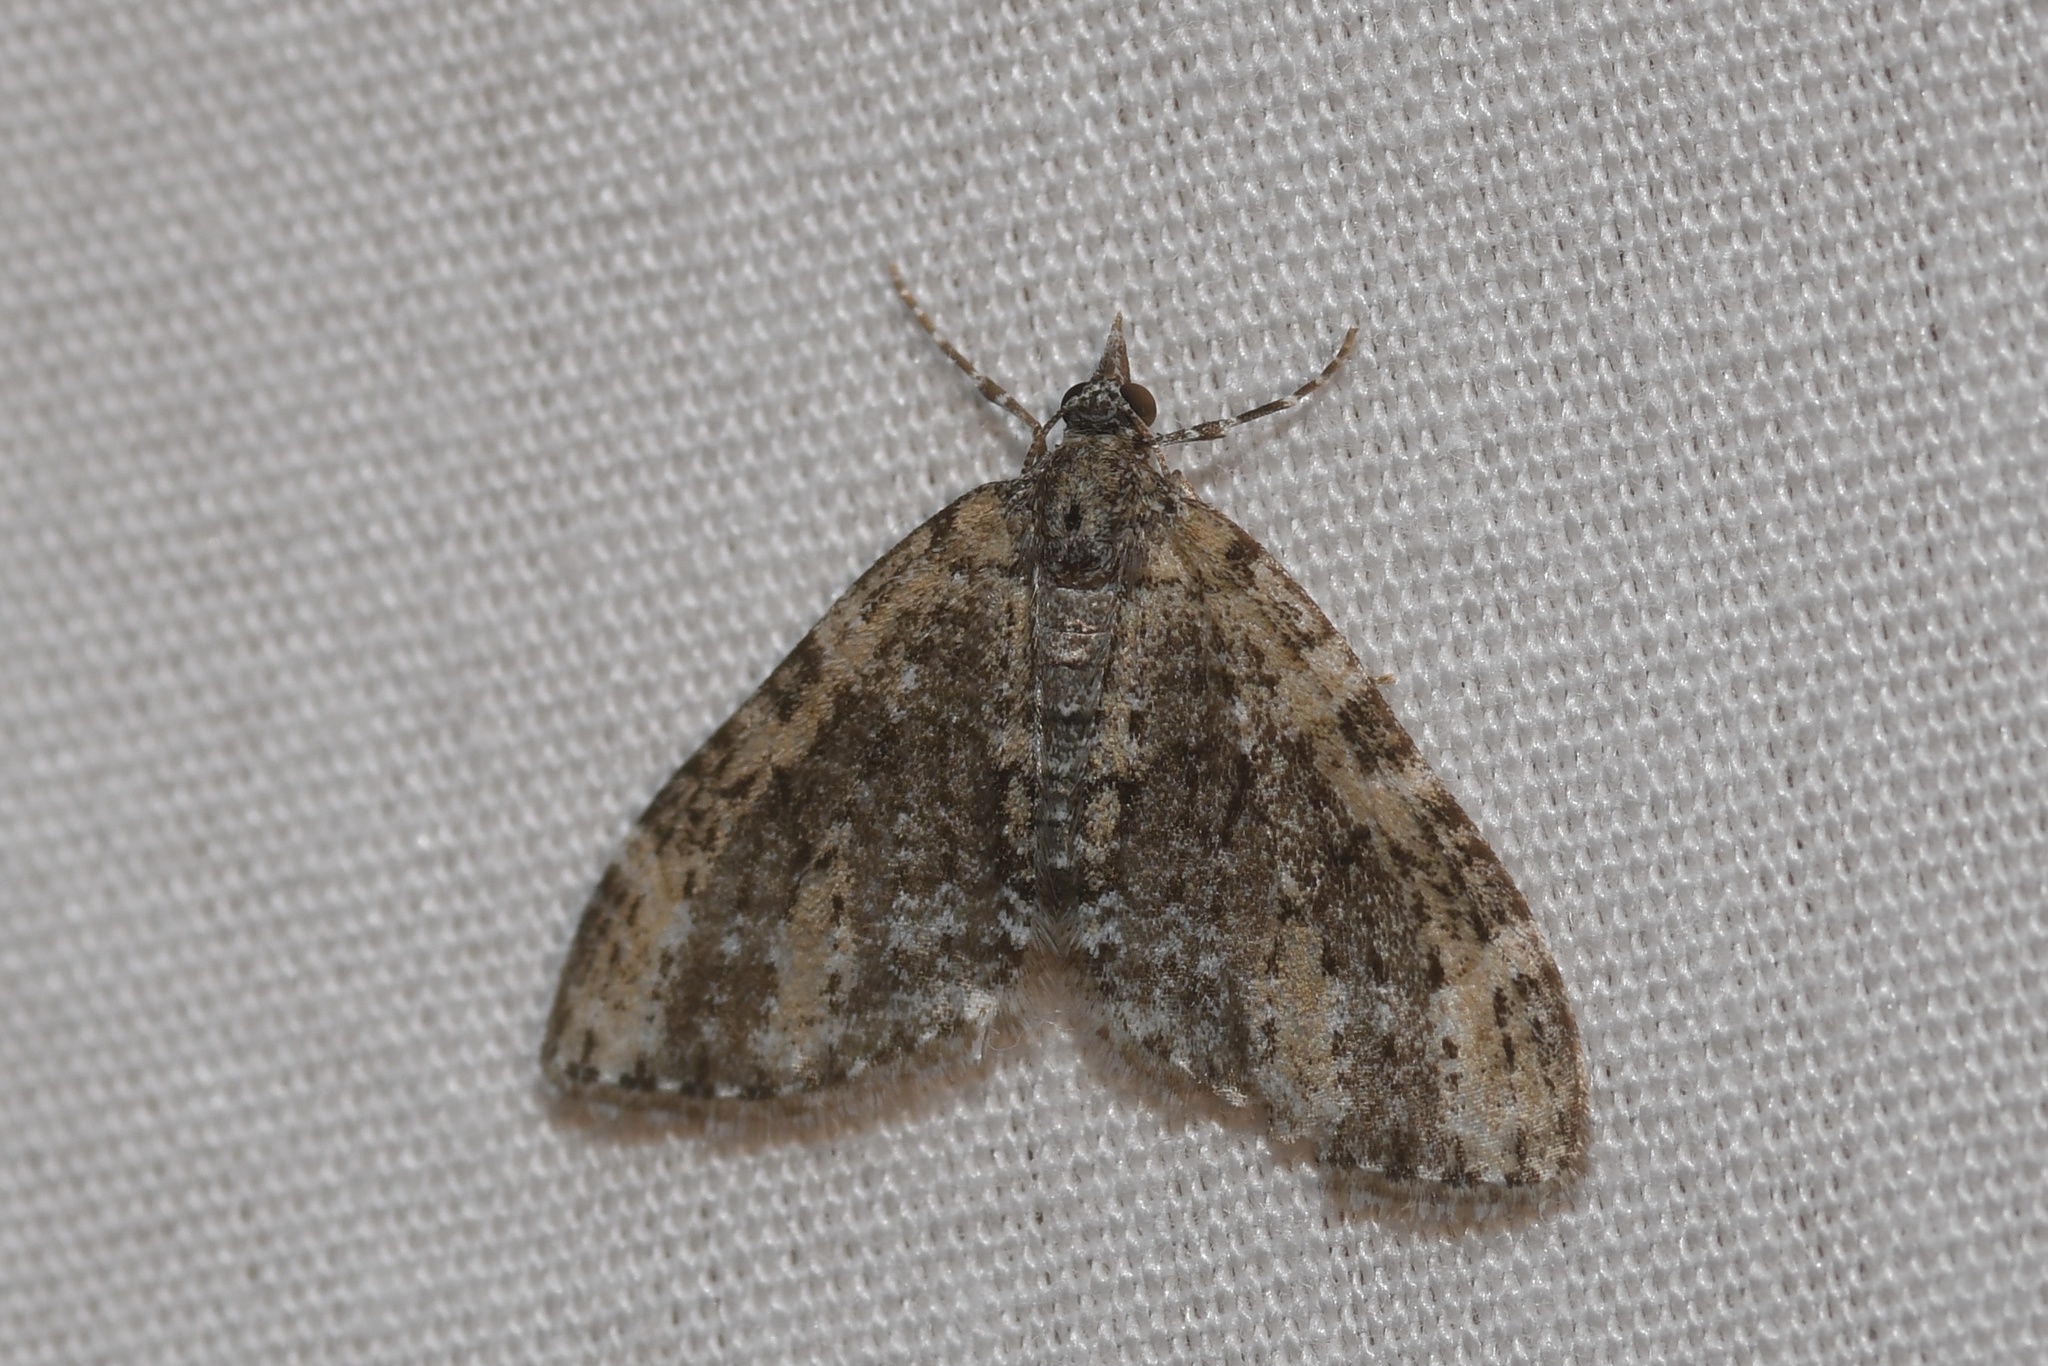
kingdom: Animalia
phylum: Arthropoda
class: Insecta
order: Lepidoptera
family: Geometridae
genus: Acasis
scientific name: Acasis viridata
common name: Olive-and-black carpet moth
